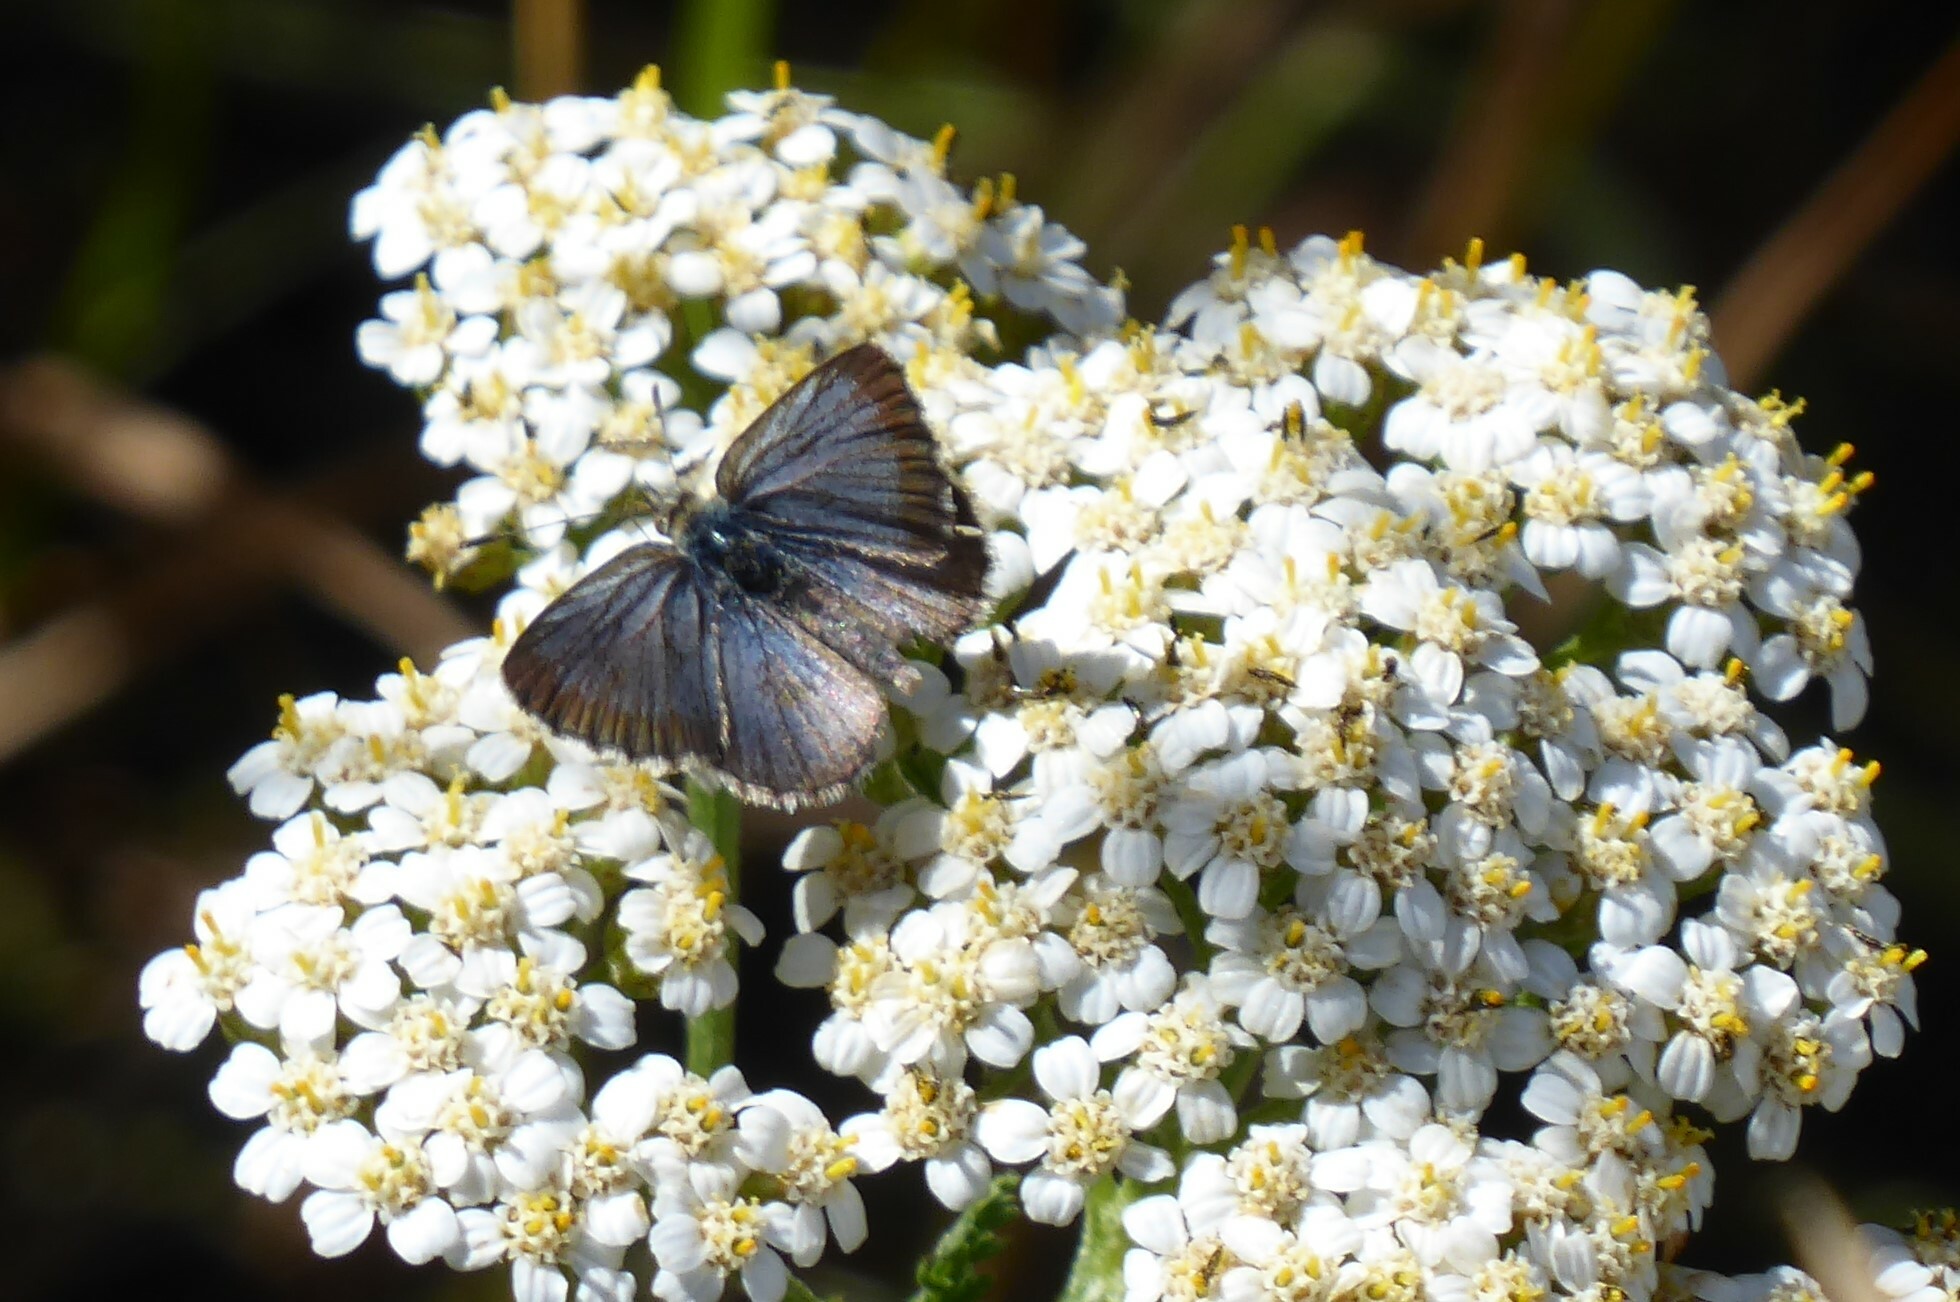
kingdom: Animalia
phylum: Arthropoda
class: Insecta
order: Lepidoptera
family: Lycaenidae
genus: Zizina
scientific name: Zizina oxleyi
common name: Southern blue
